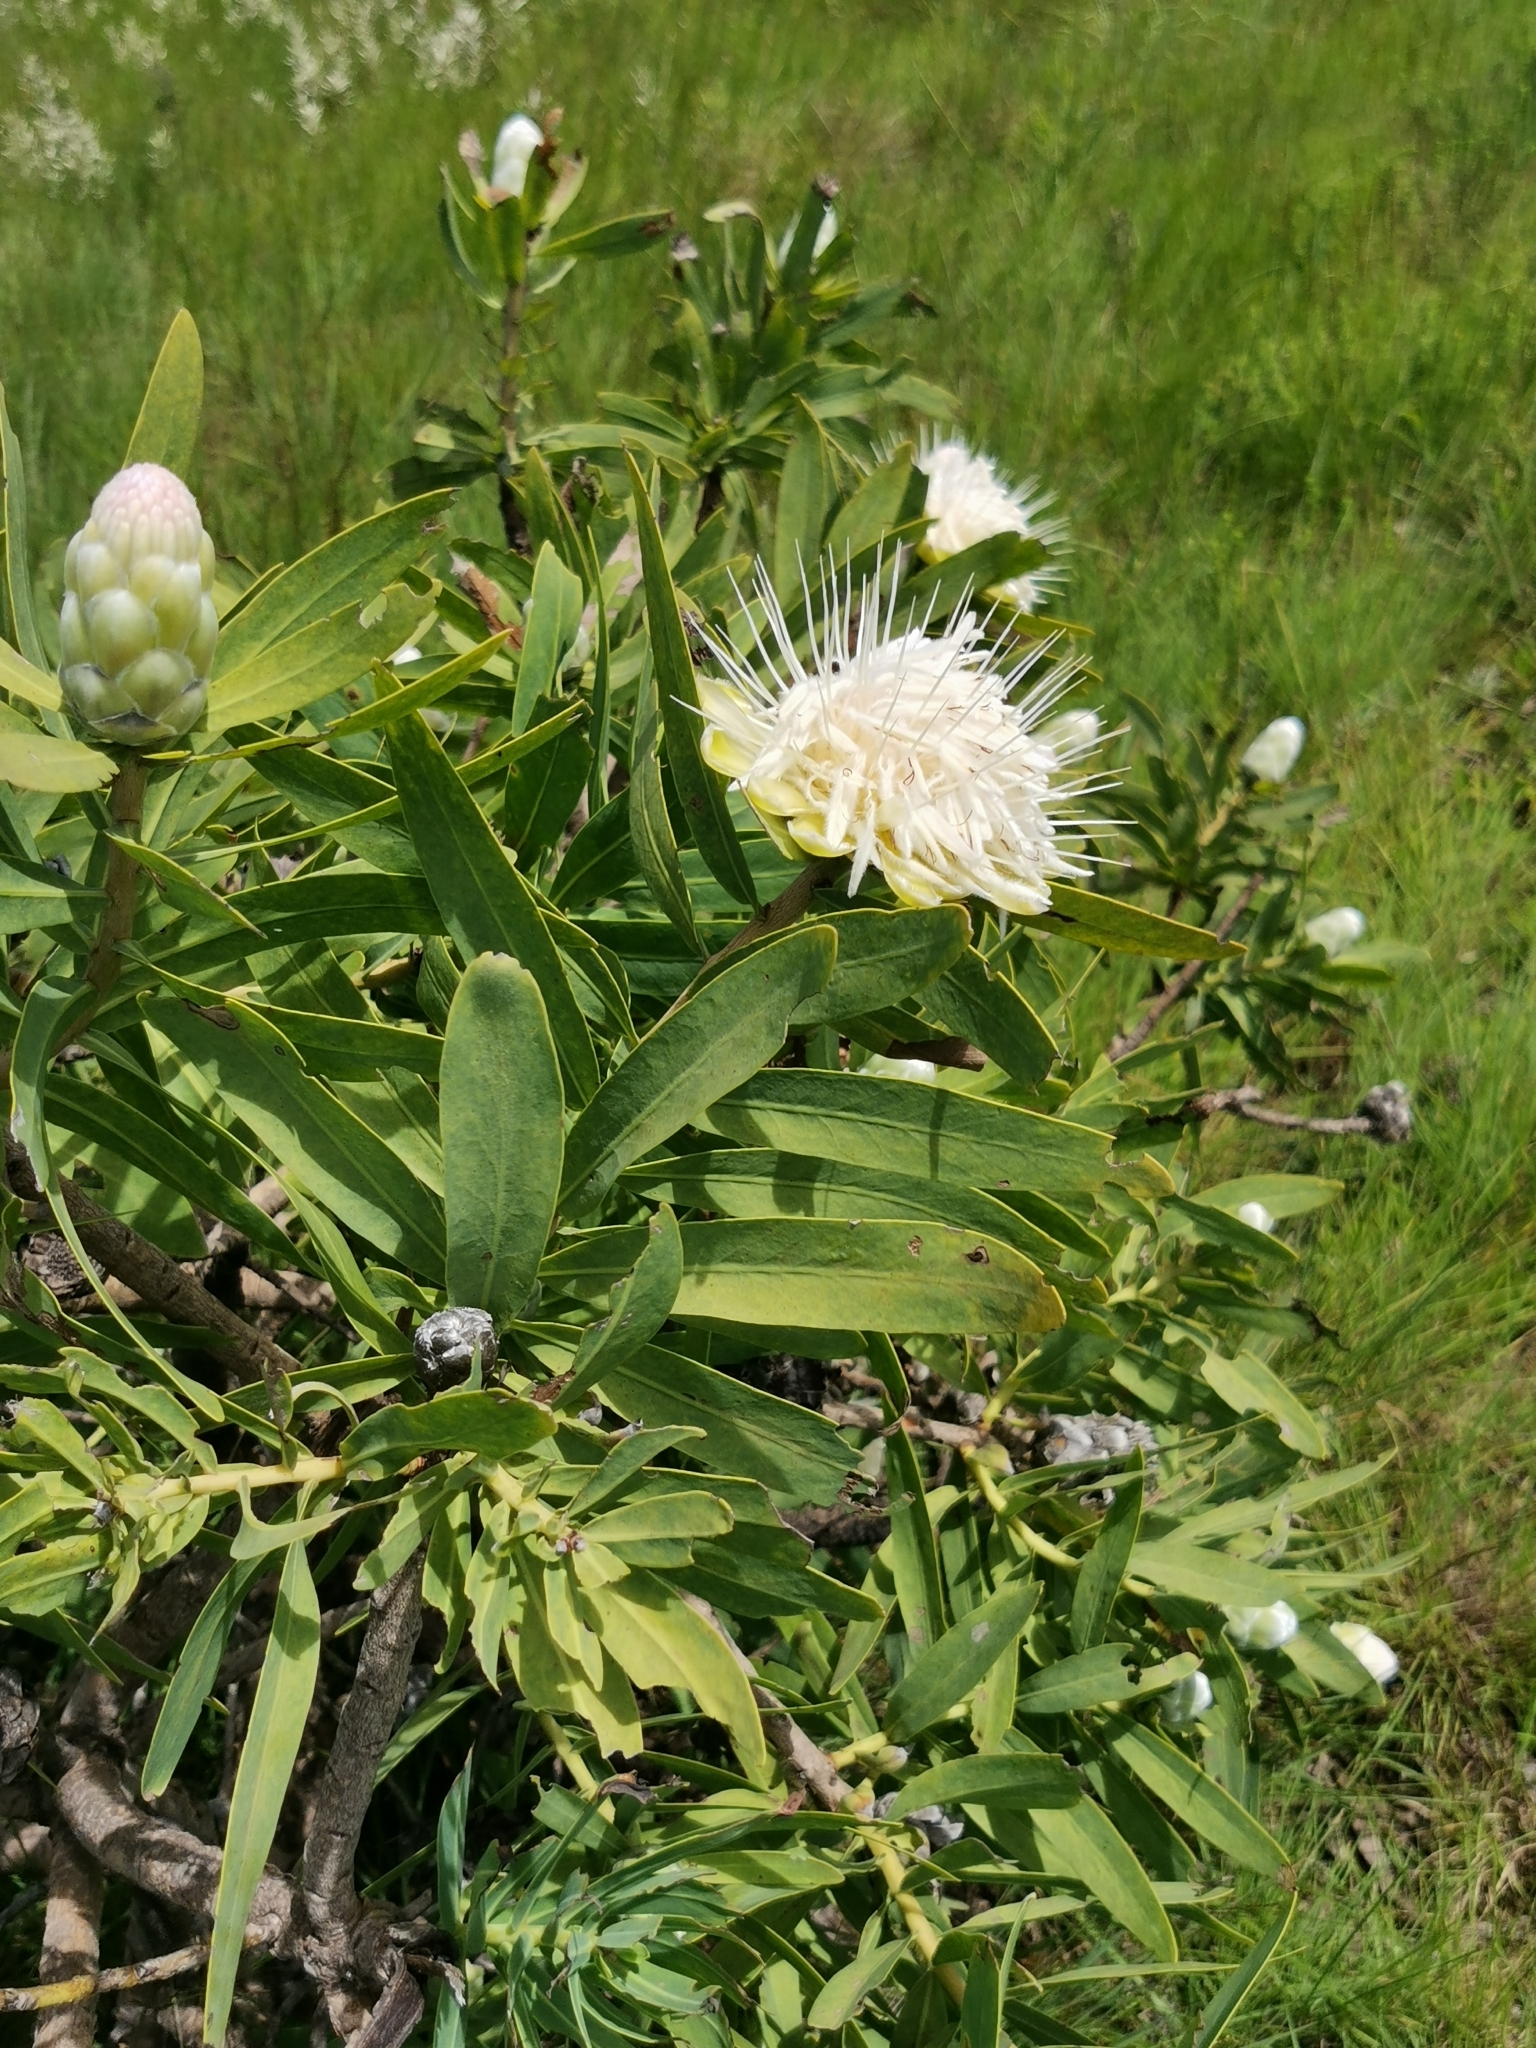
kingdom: Plantae
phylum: Tracheophyta
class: Magnoliopsida
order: Proteales
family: Proteaceae
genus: Protea
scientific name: Protea gaguedi
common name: African protea
